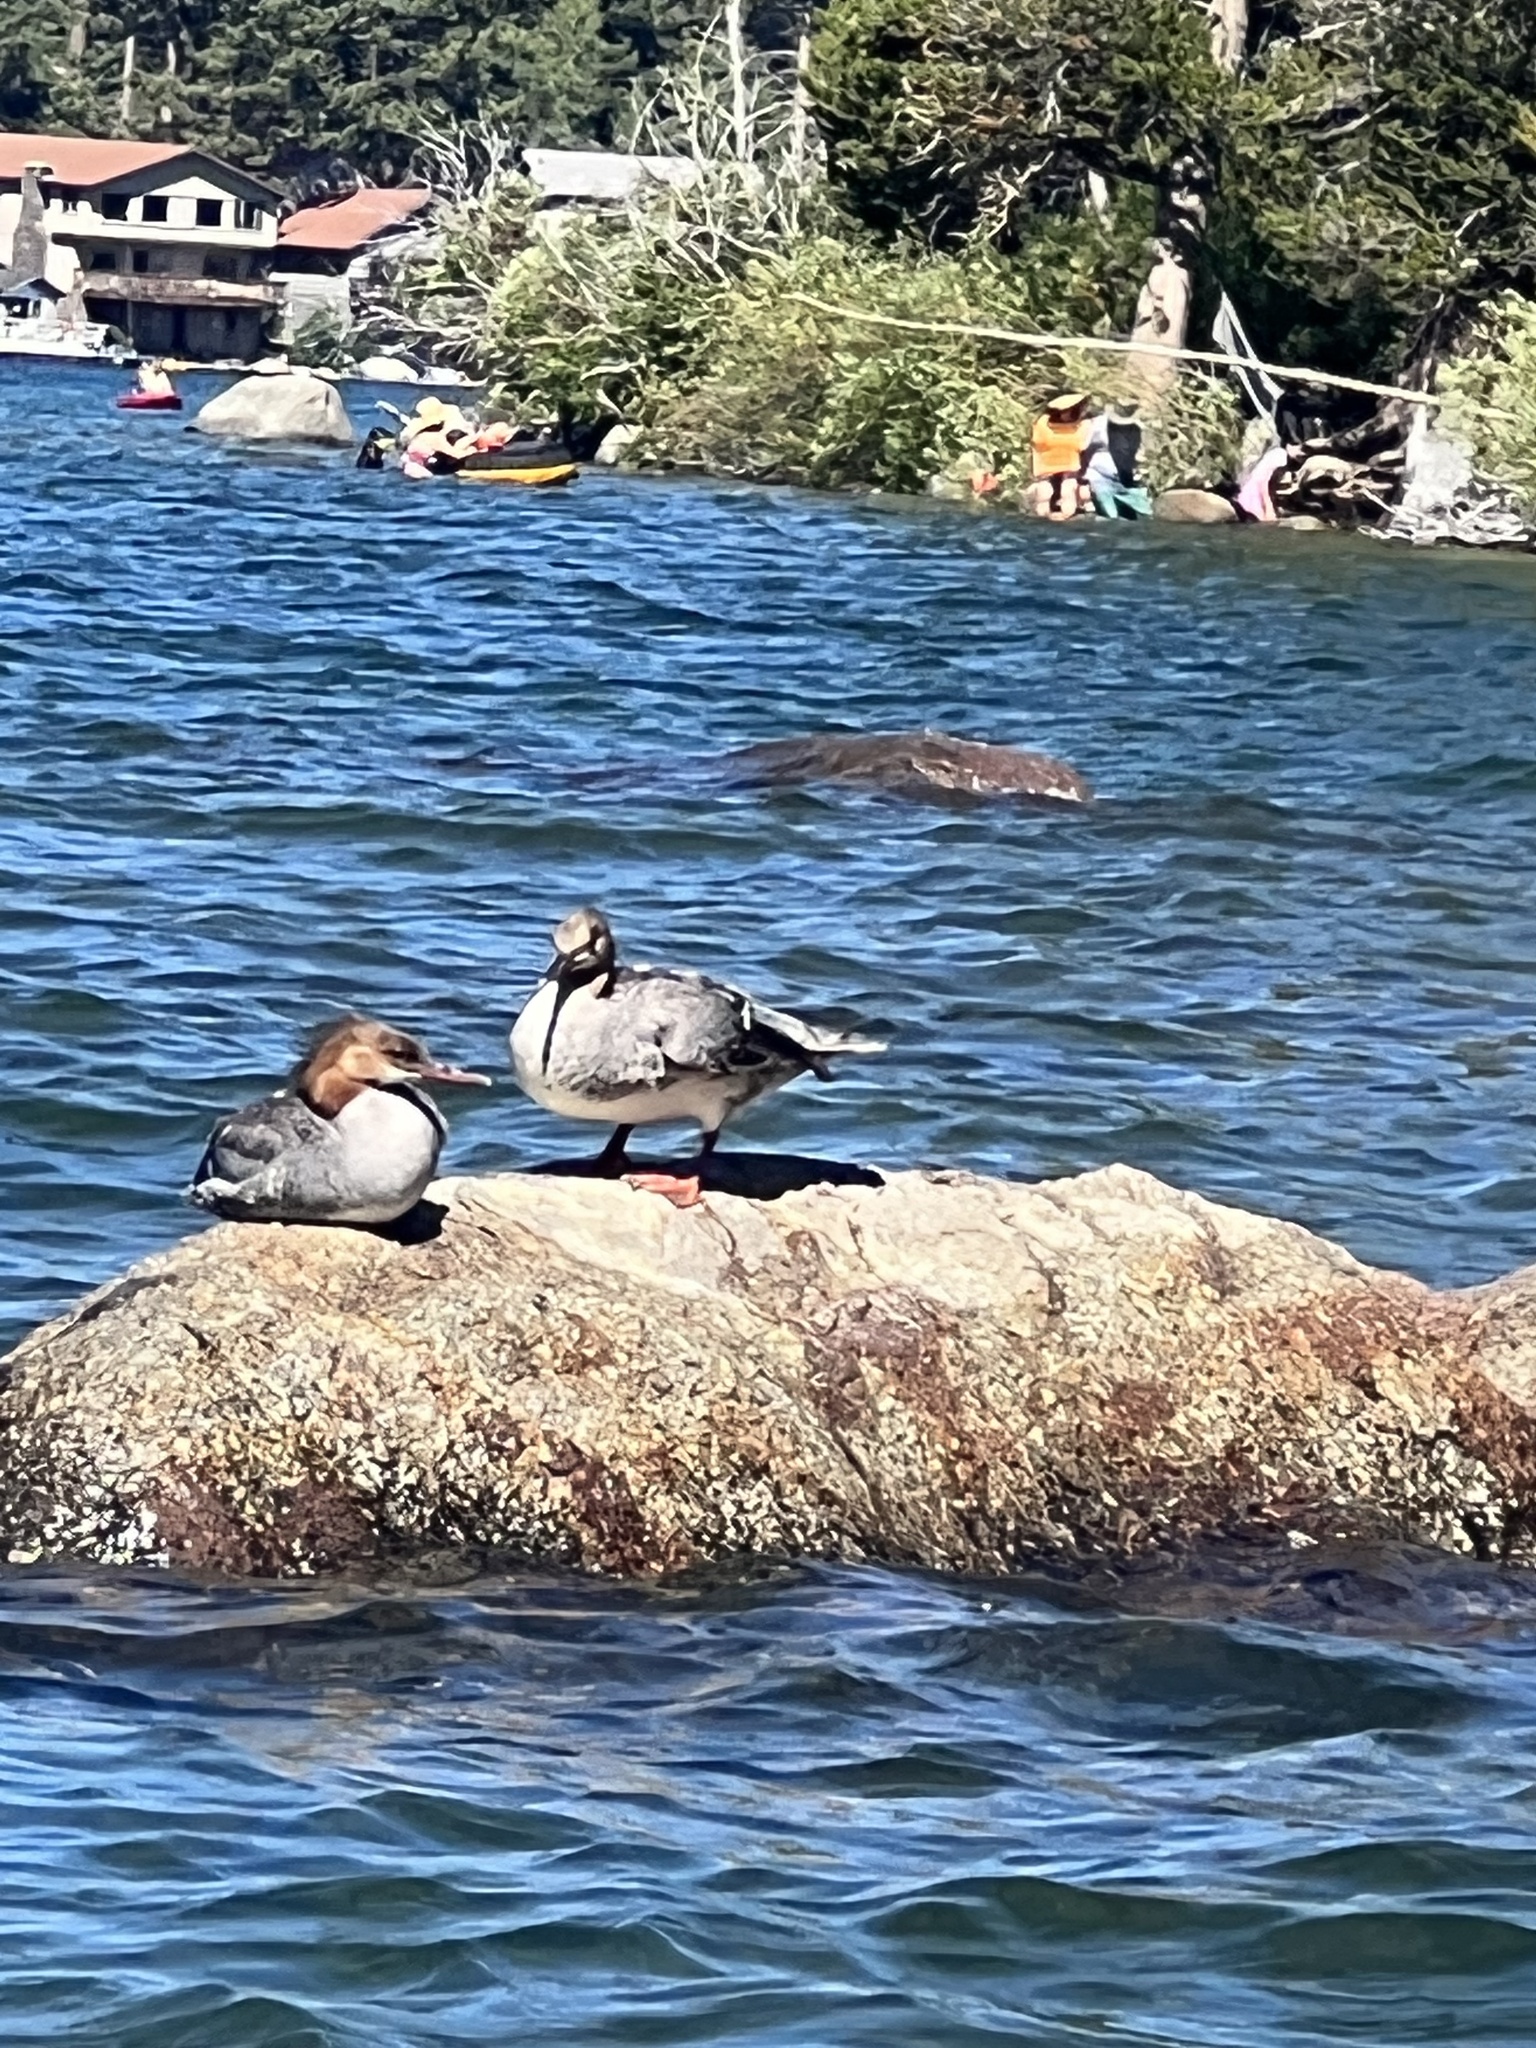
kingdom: Animalia
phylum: Chordata
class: Aves
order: Anseriformes
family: Anatidae
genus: Mergus
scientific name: Mergus merganser
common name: Common merganser
